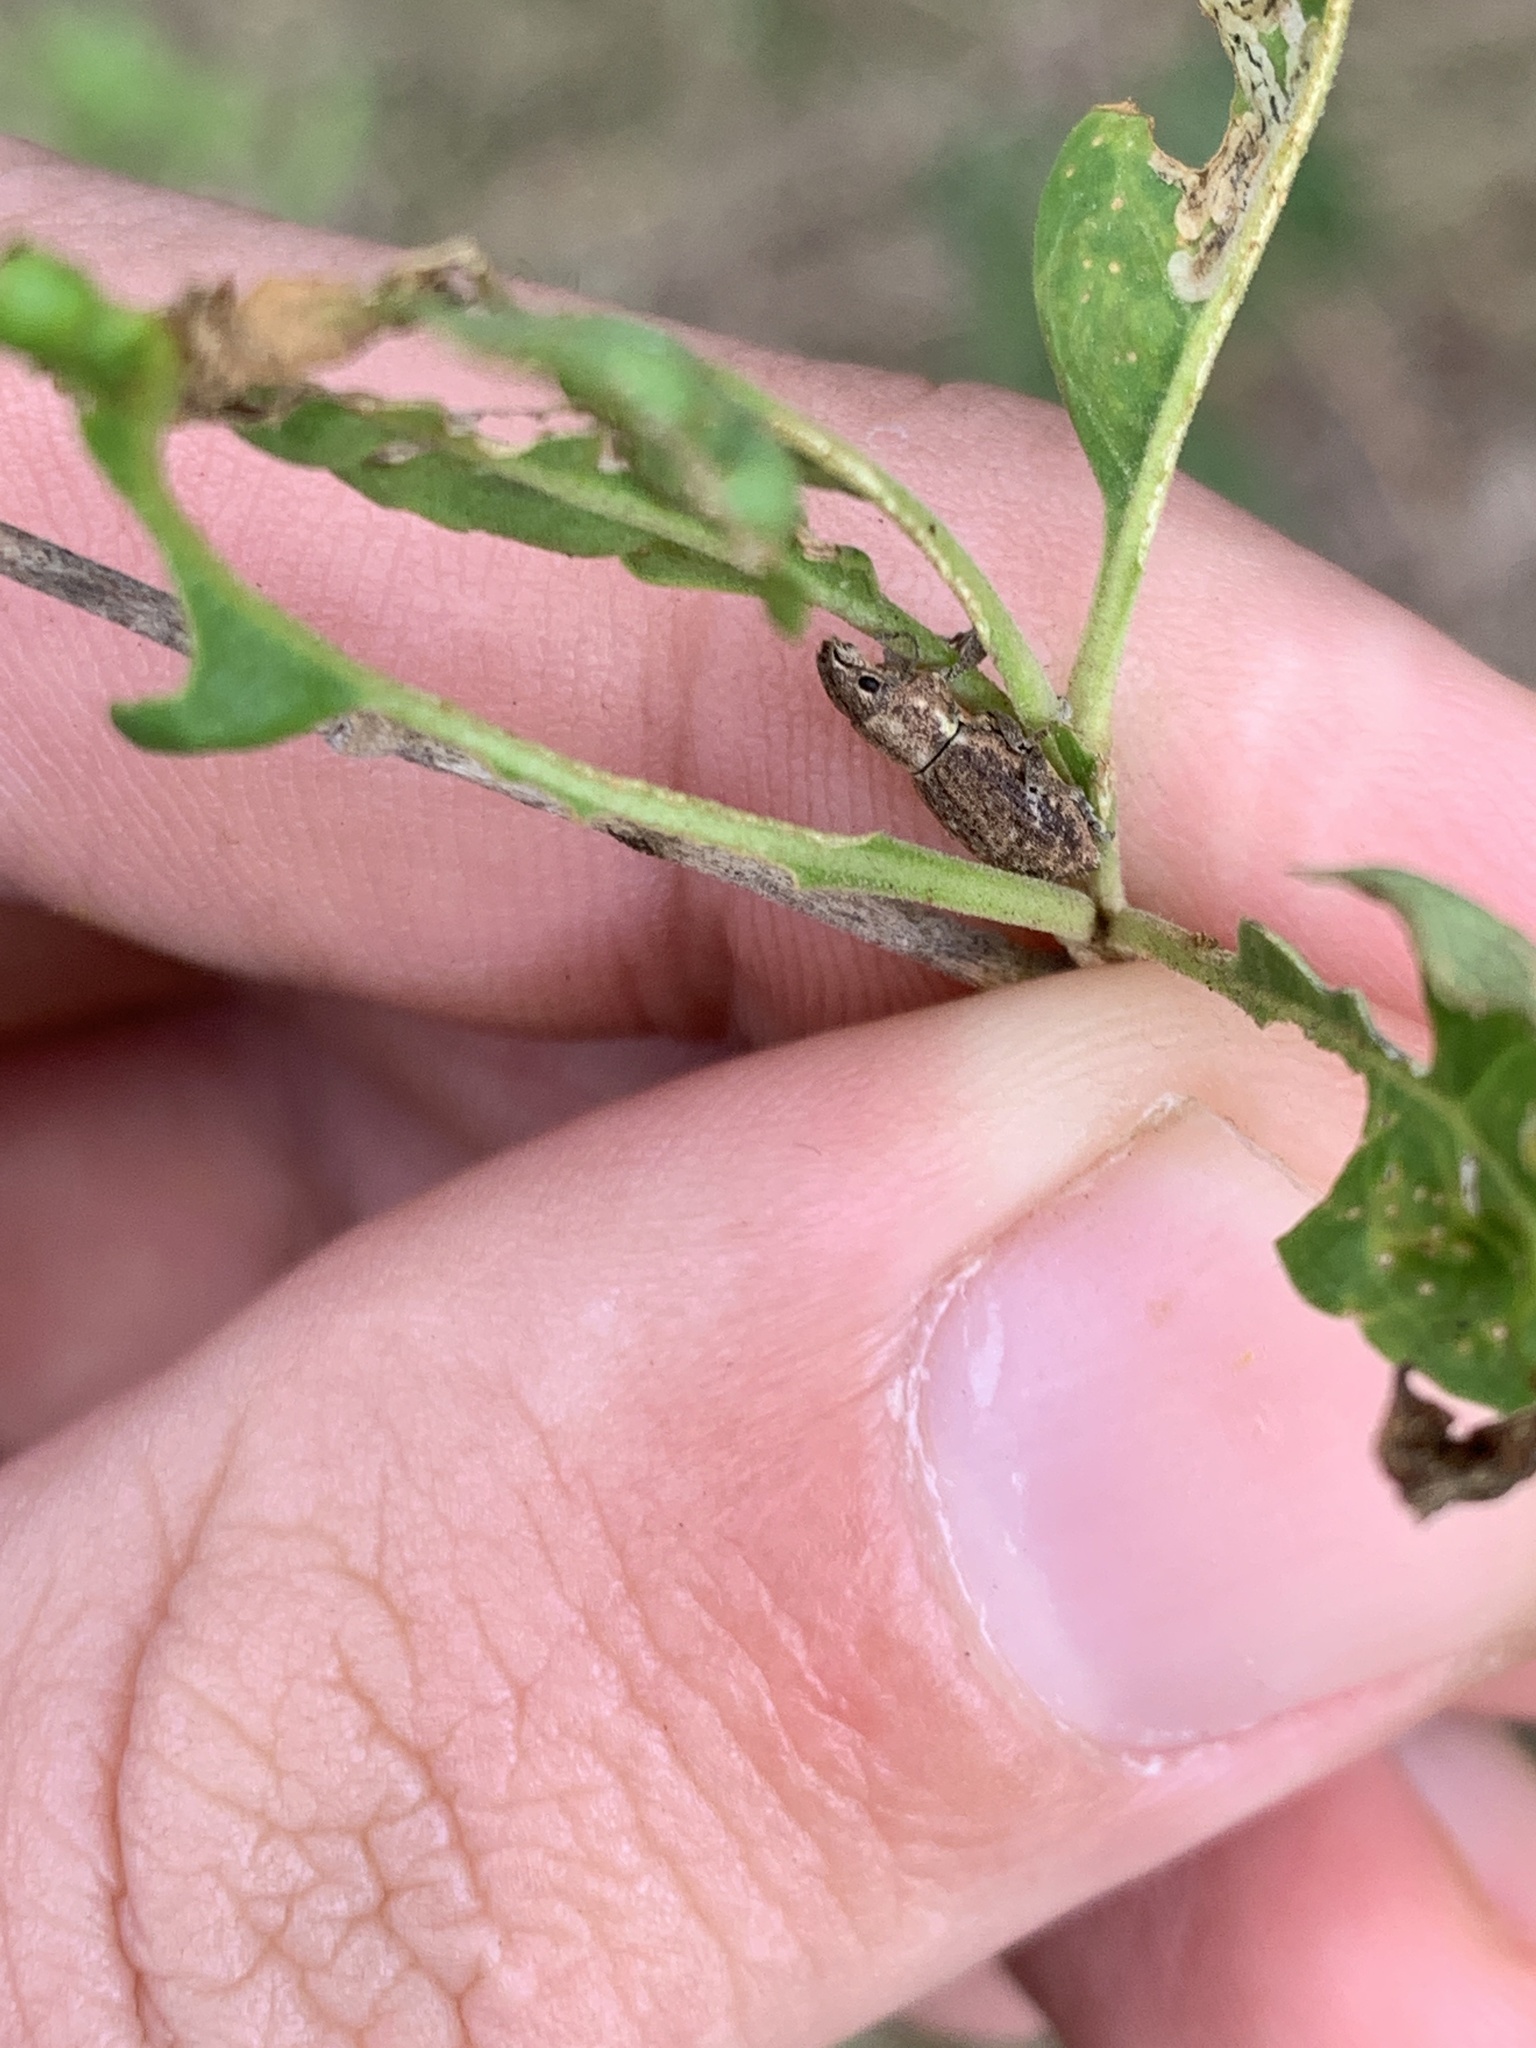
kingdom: Animalia
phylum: Arthropoda
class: Insecta
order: Coleoptera
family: Curculionidae
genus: Naupactus
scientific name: Naupactus cervinus
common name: Fuller rose beetle
